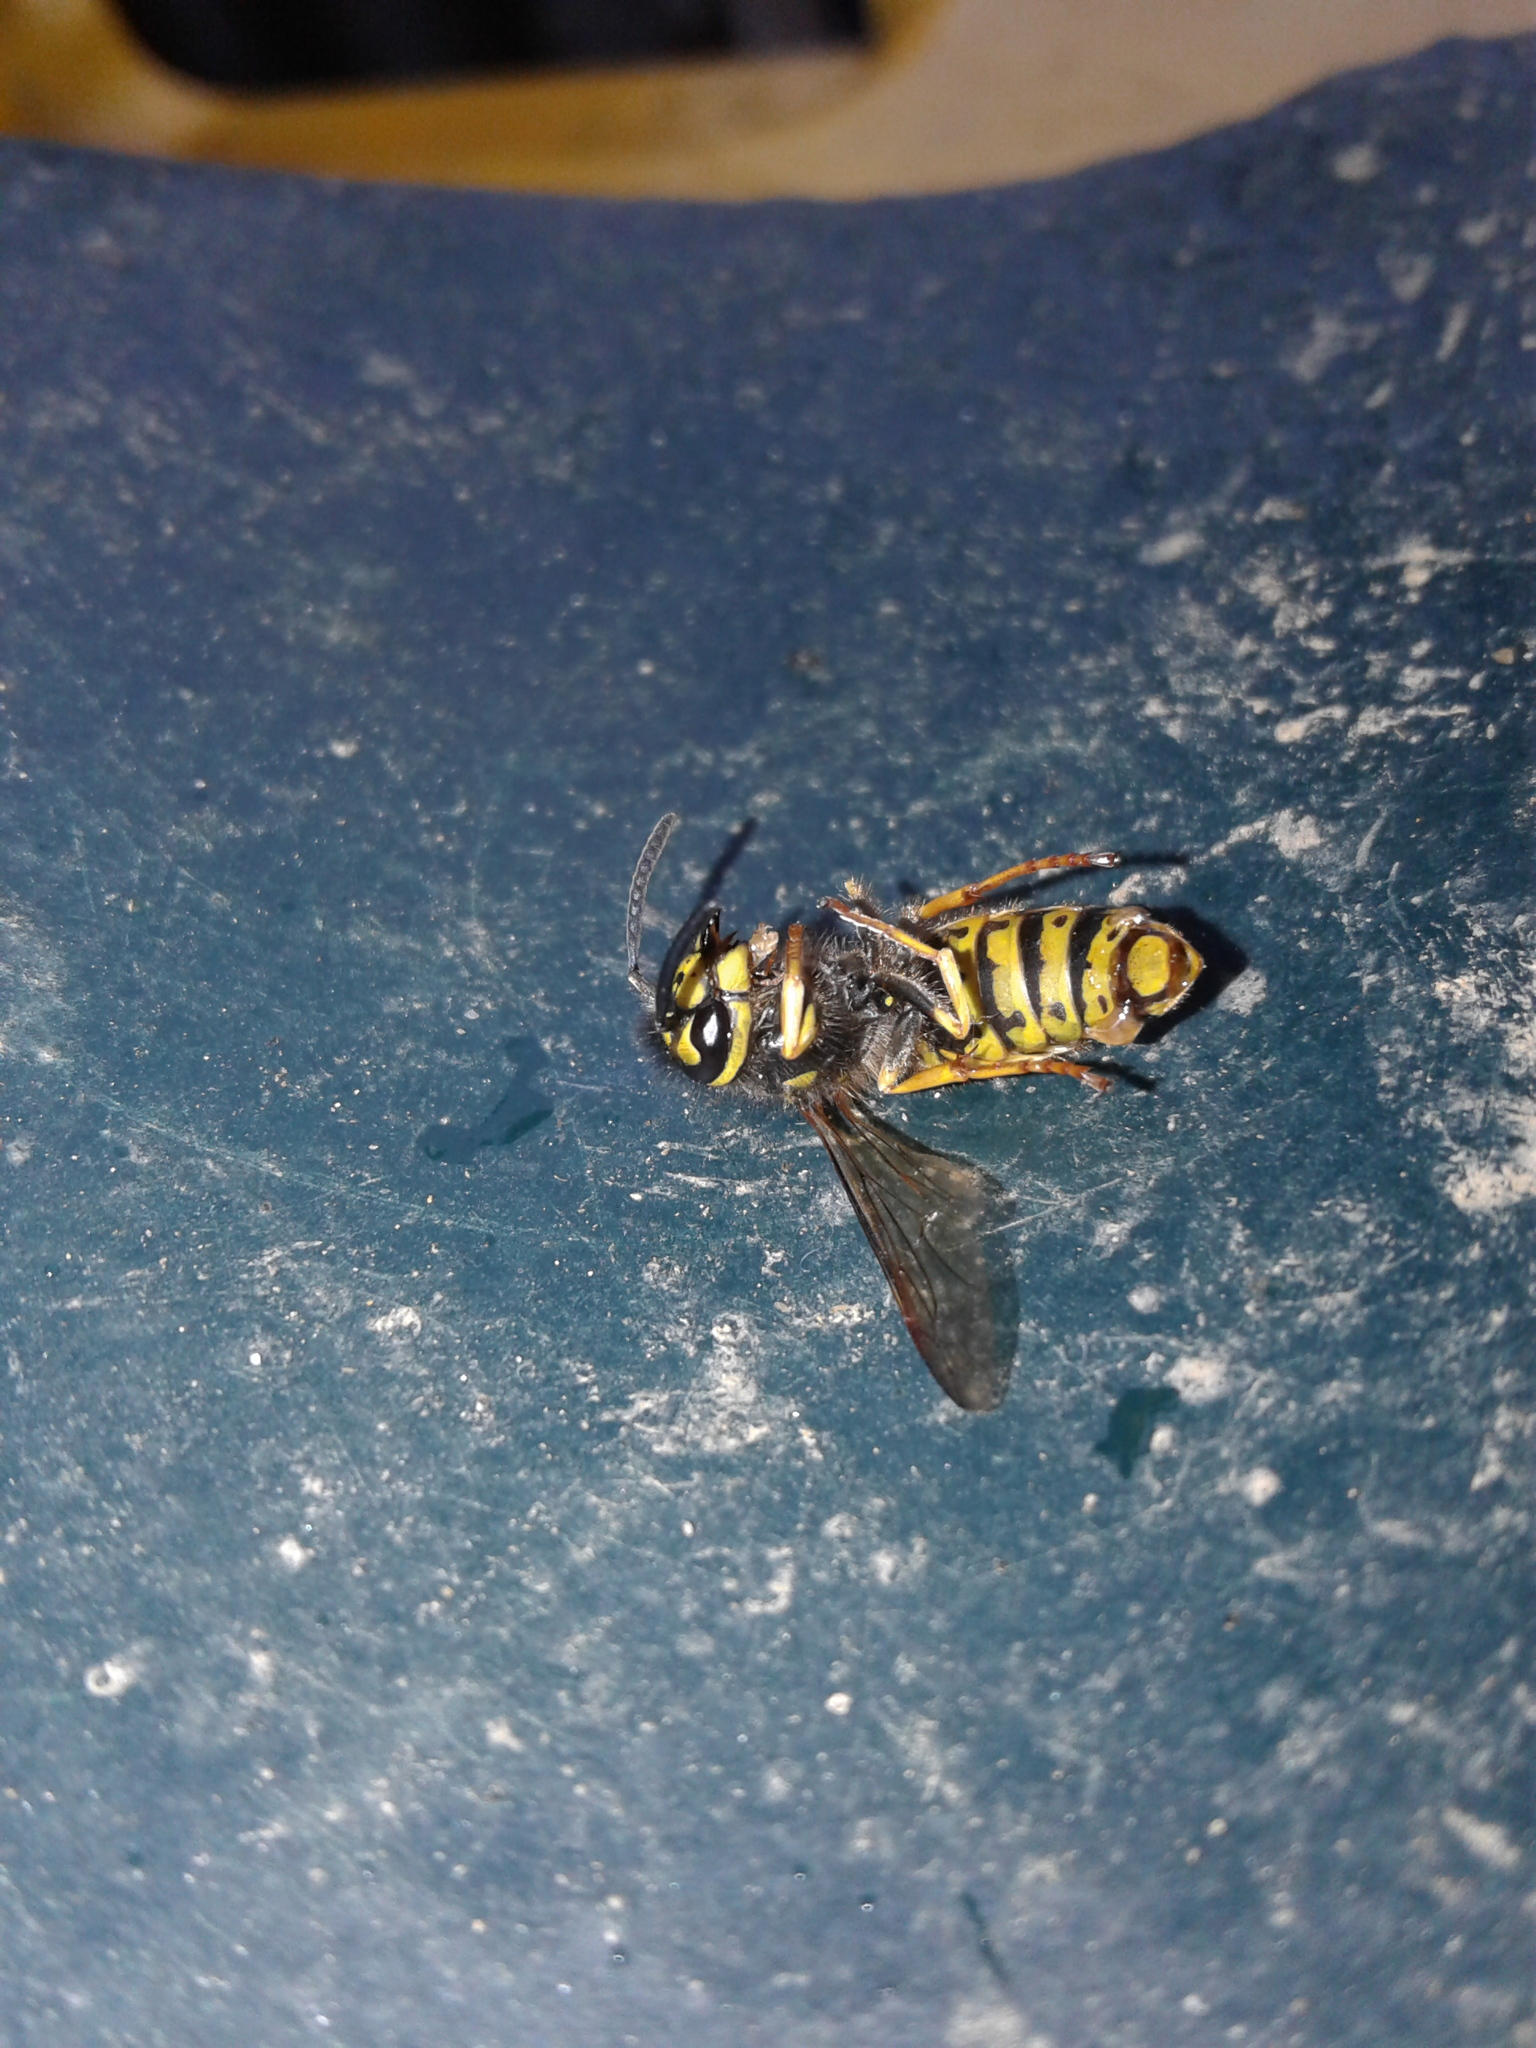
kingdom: Animalia
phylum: Arthropoda
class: Insecta
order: Hymenoptera
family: Vespidae
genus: Vespula
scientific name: Vespula germanica
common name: German wasp
